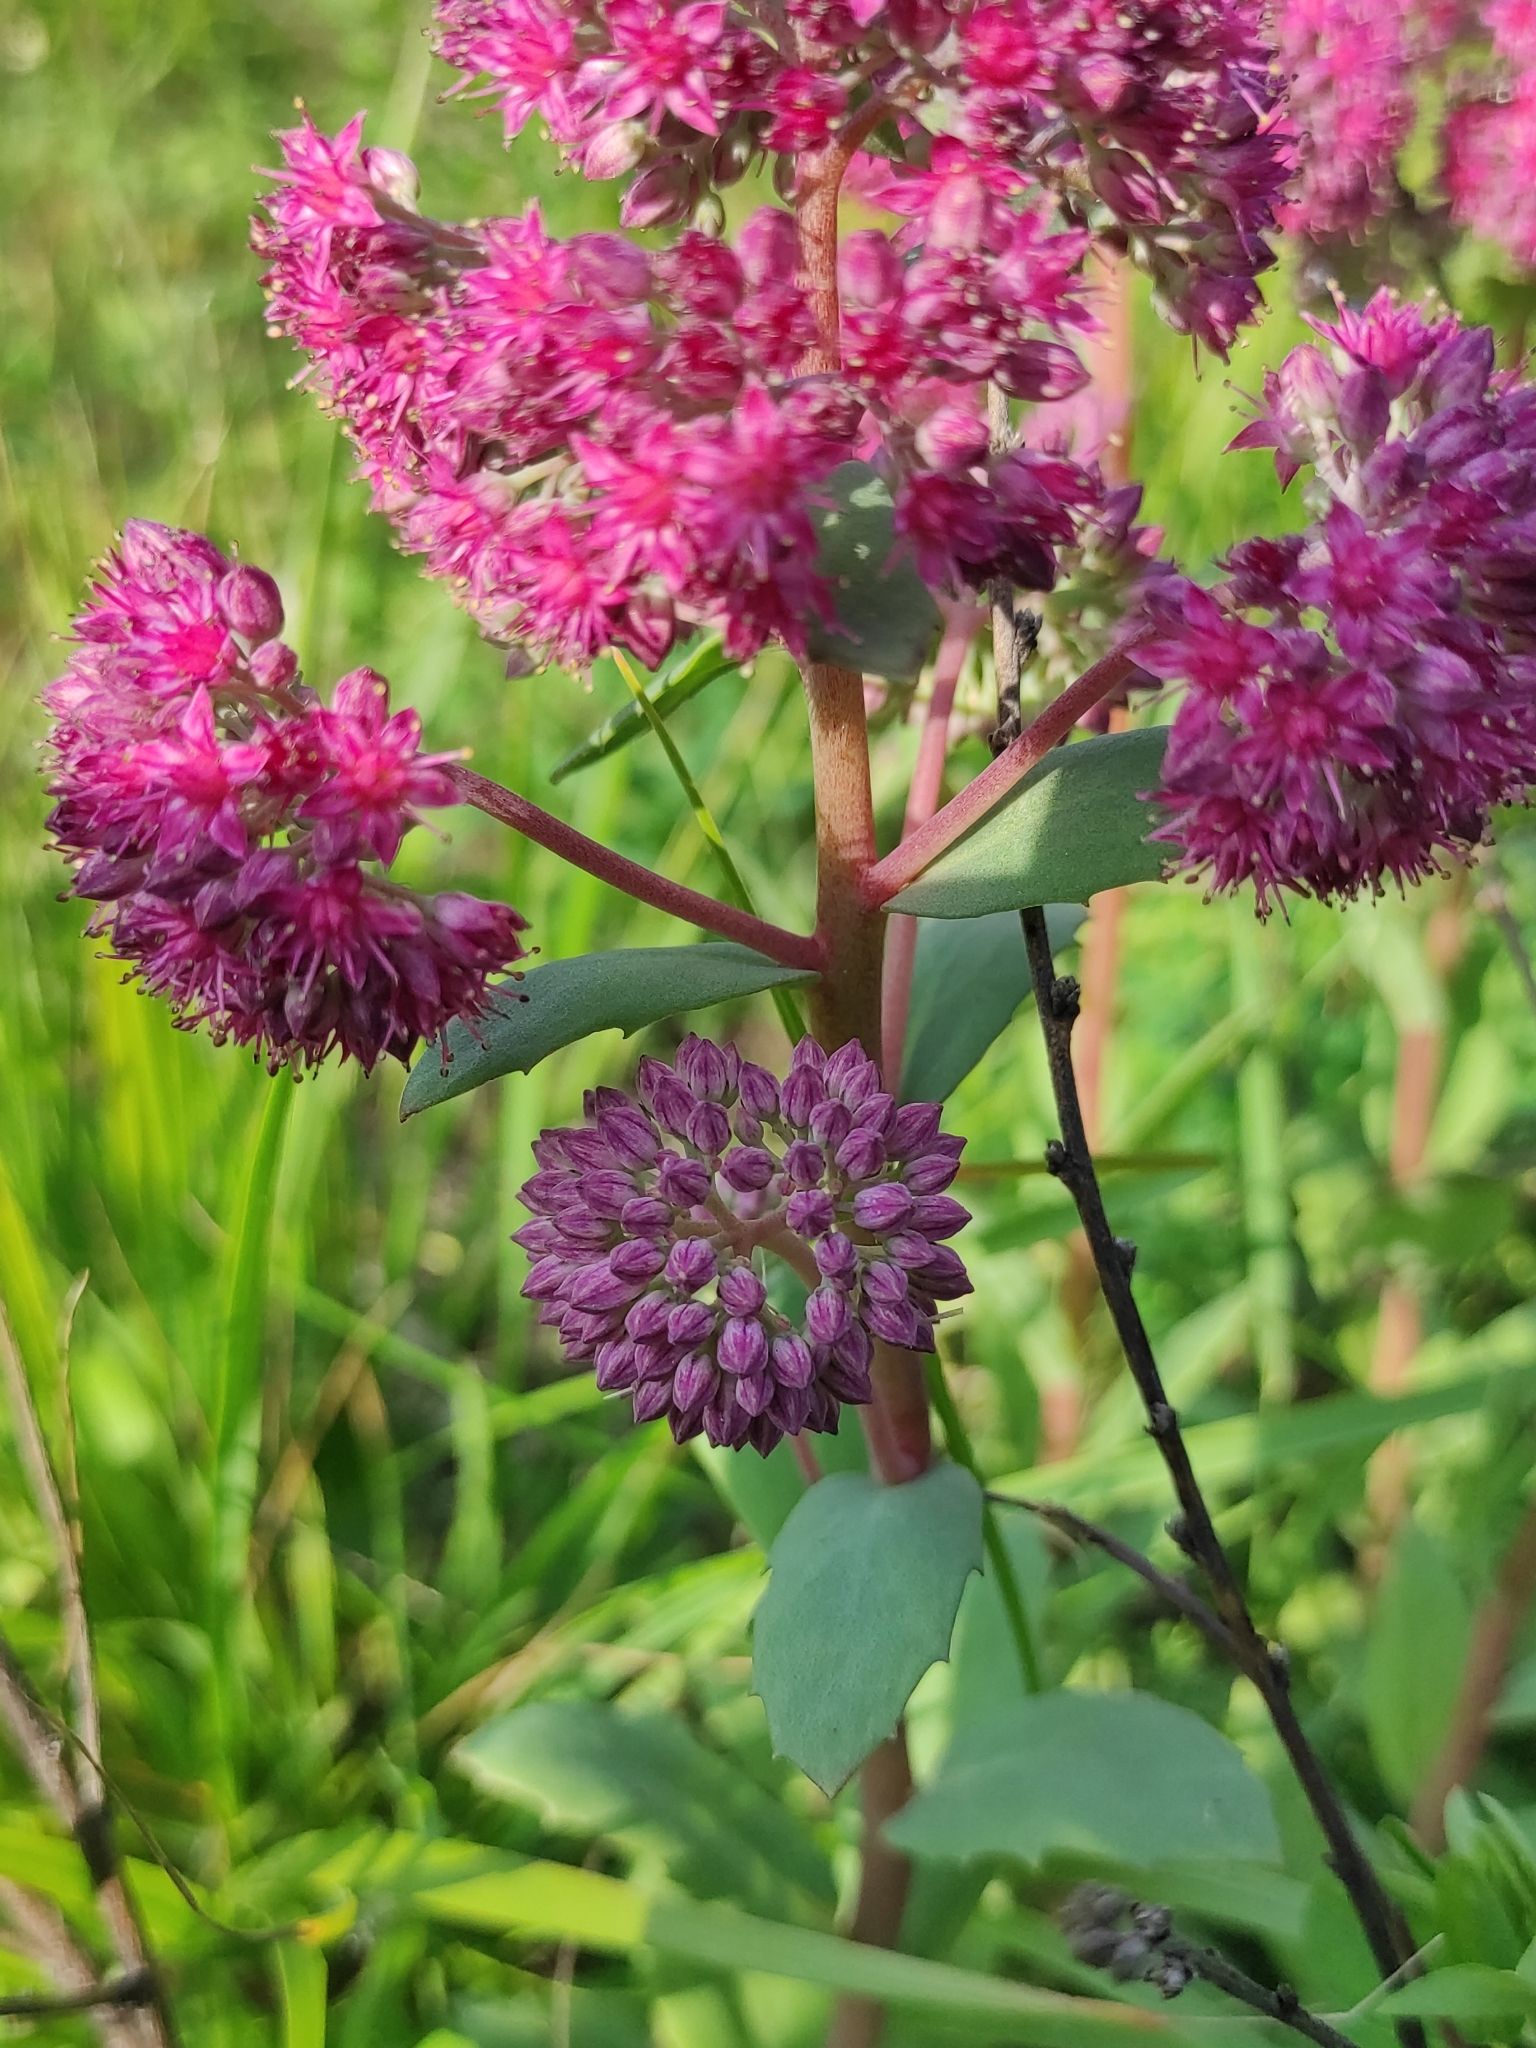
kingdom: Plantae
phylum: Tracheophyta
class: Magnoliopsida
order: Saxifragales
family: Crassulaceae
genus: Hylotelephium
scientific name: Hylotelephium telephium
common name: Live-forever
